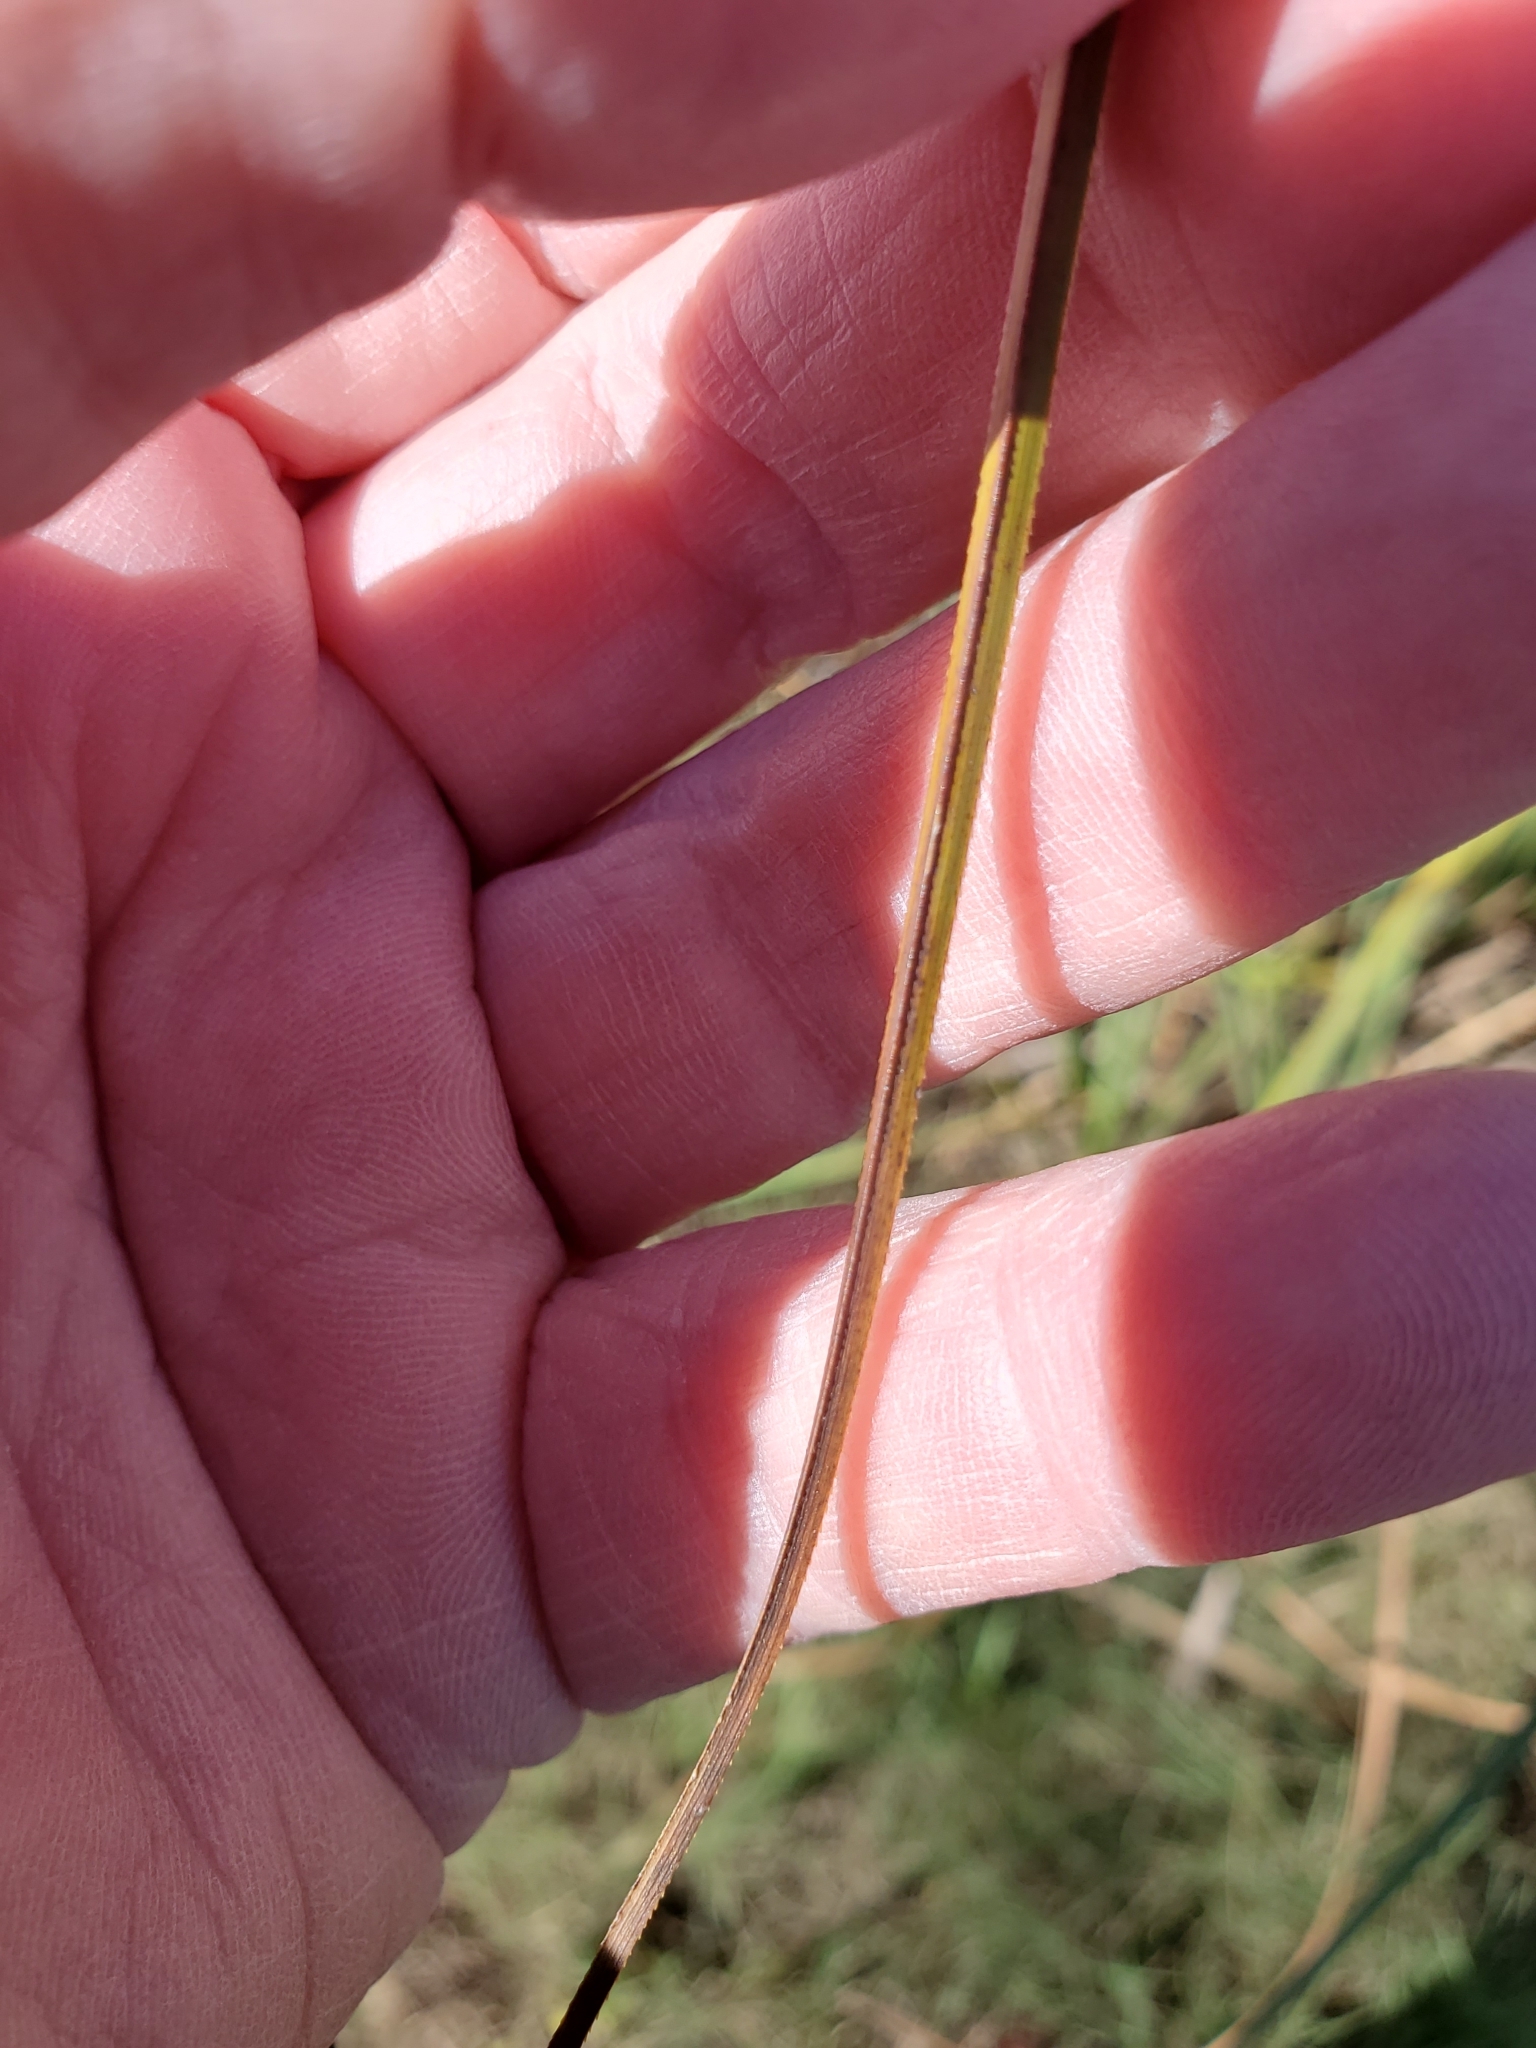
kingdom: Plantae
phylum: Tracheophyta
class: Liliopsida
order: Poales
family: Cyperaceae
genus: Cladium
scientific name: Cladium mariscus
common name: Great fen-sedge
